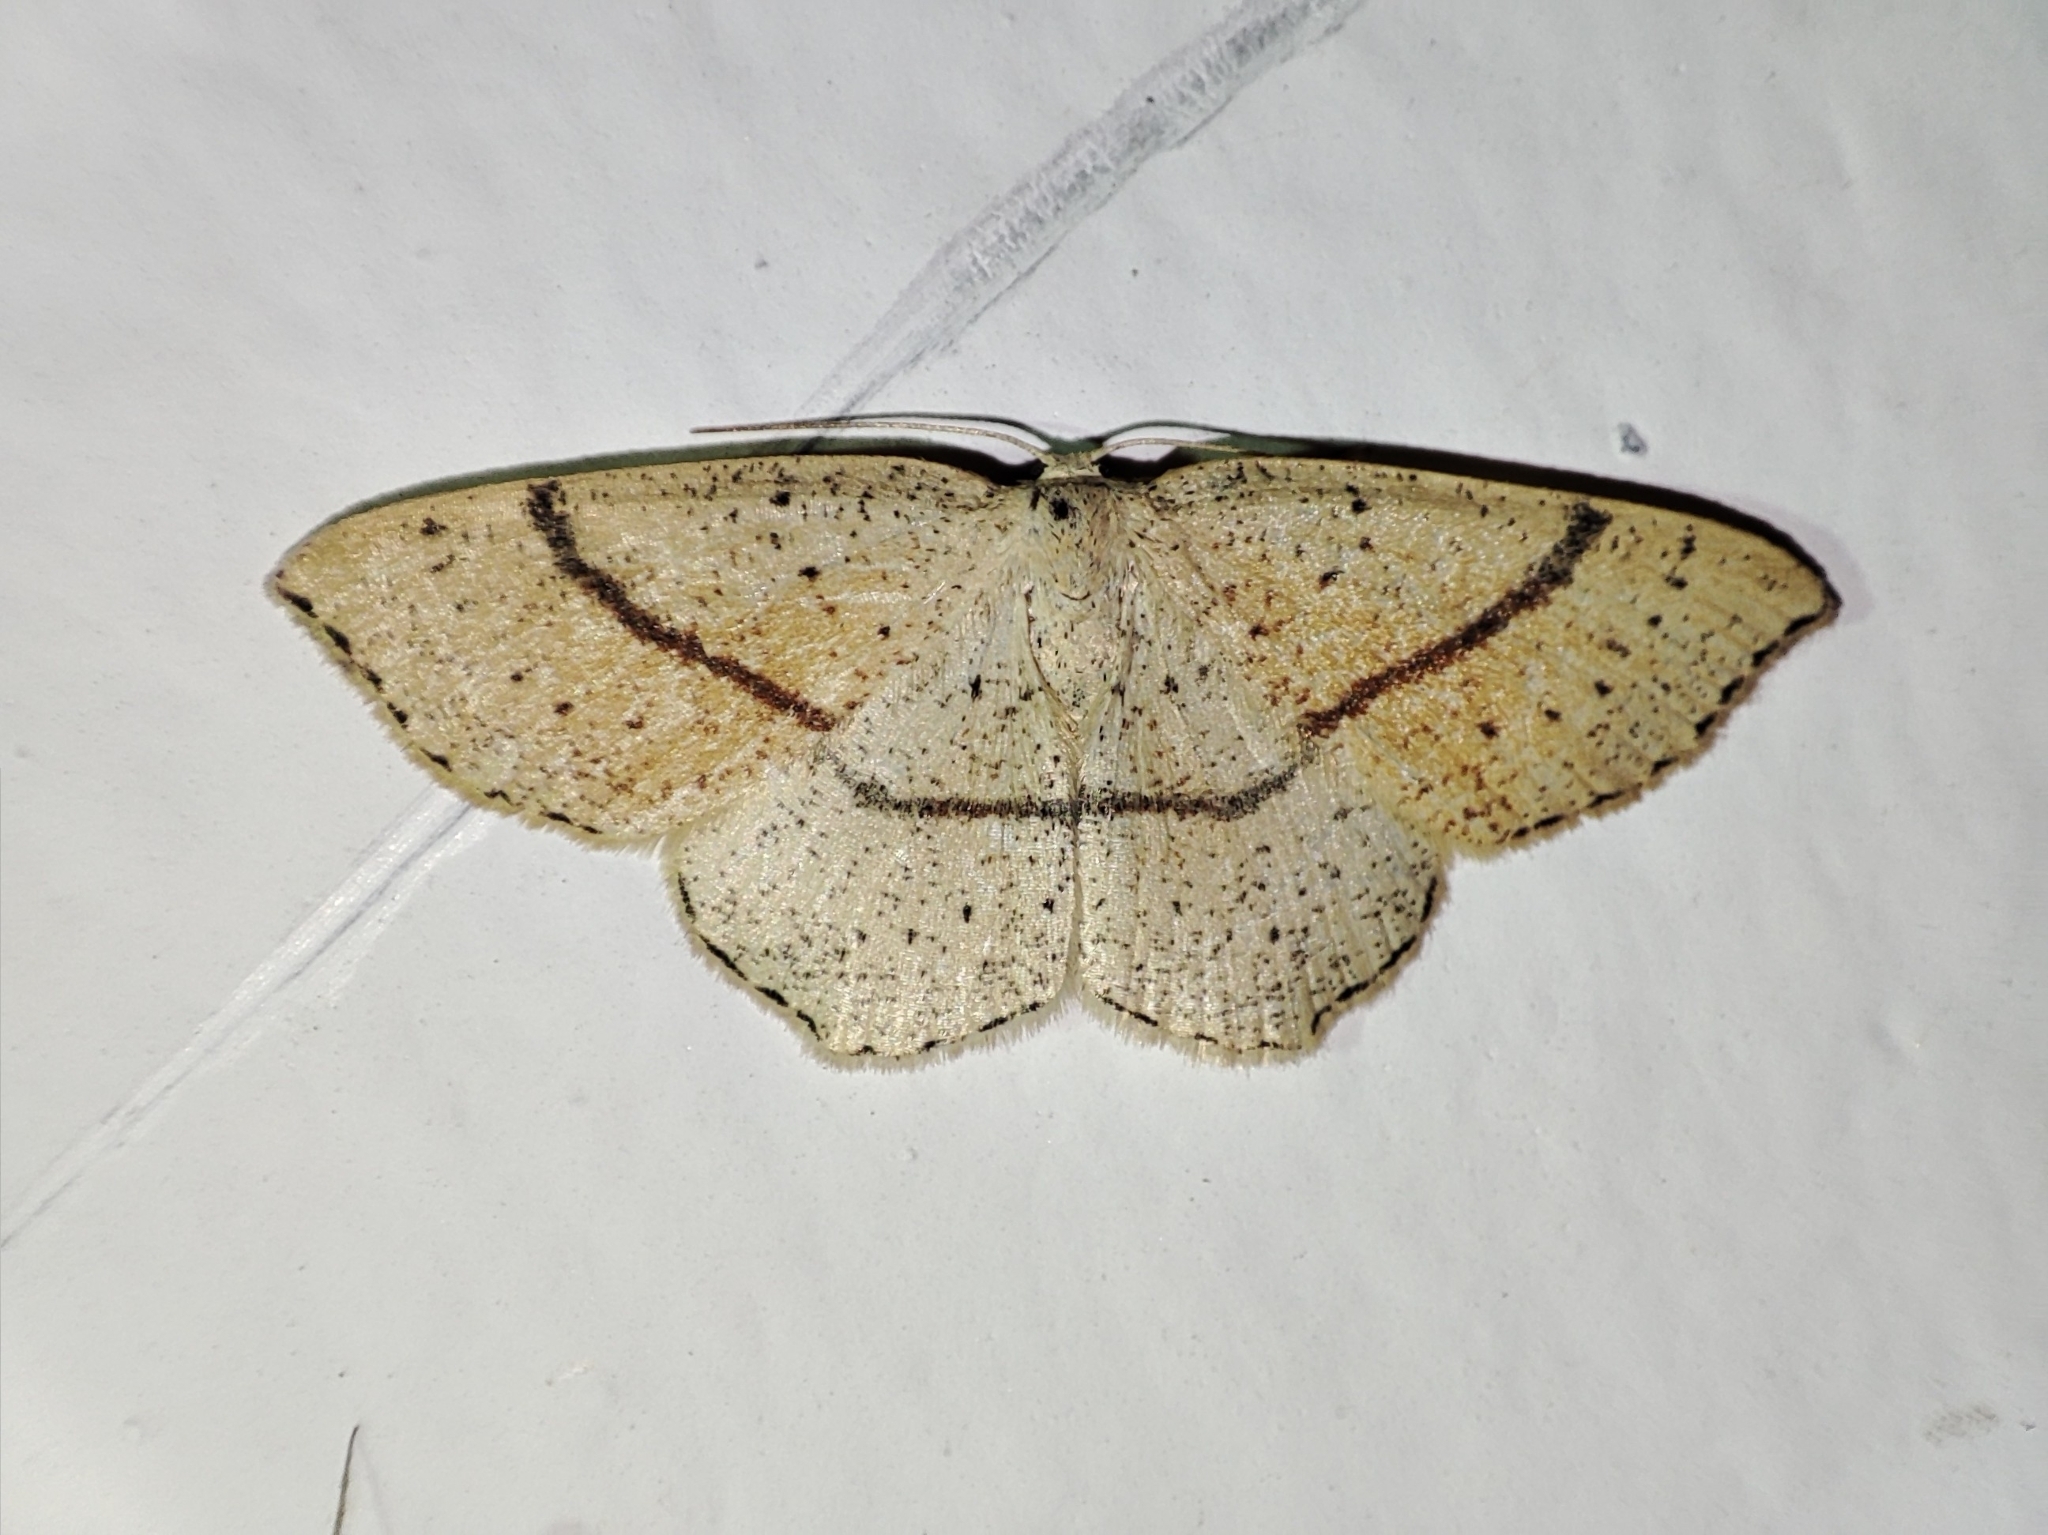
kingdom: Animalia
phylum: Arthropoda
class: Insecta
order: Lepidoptera
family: Geometridae
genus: Cyclophora
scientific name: Cyclophora punctaria
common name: Maiden's blush
